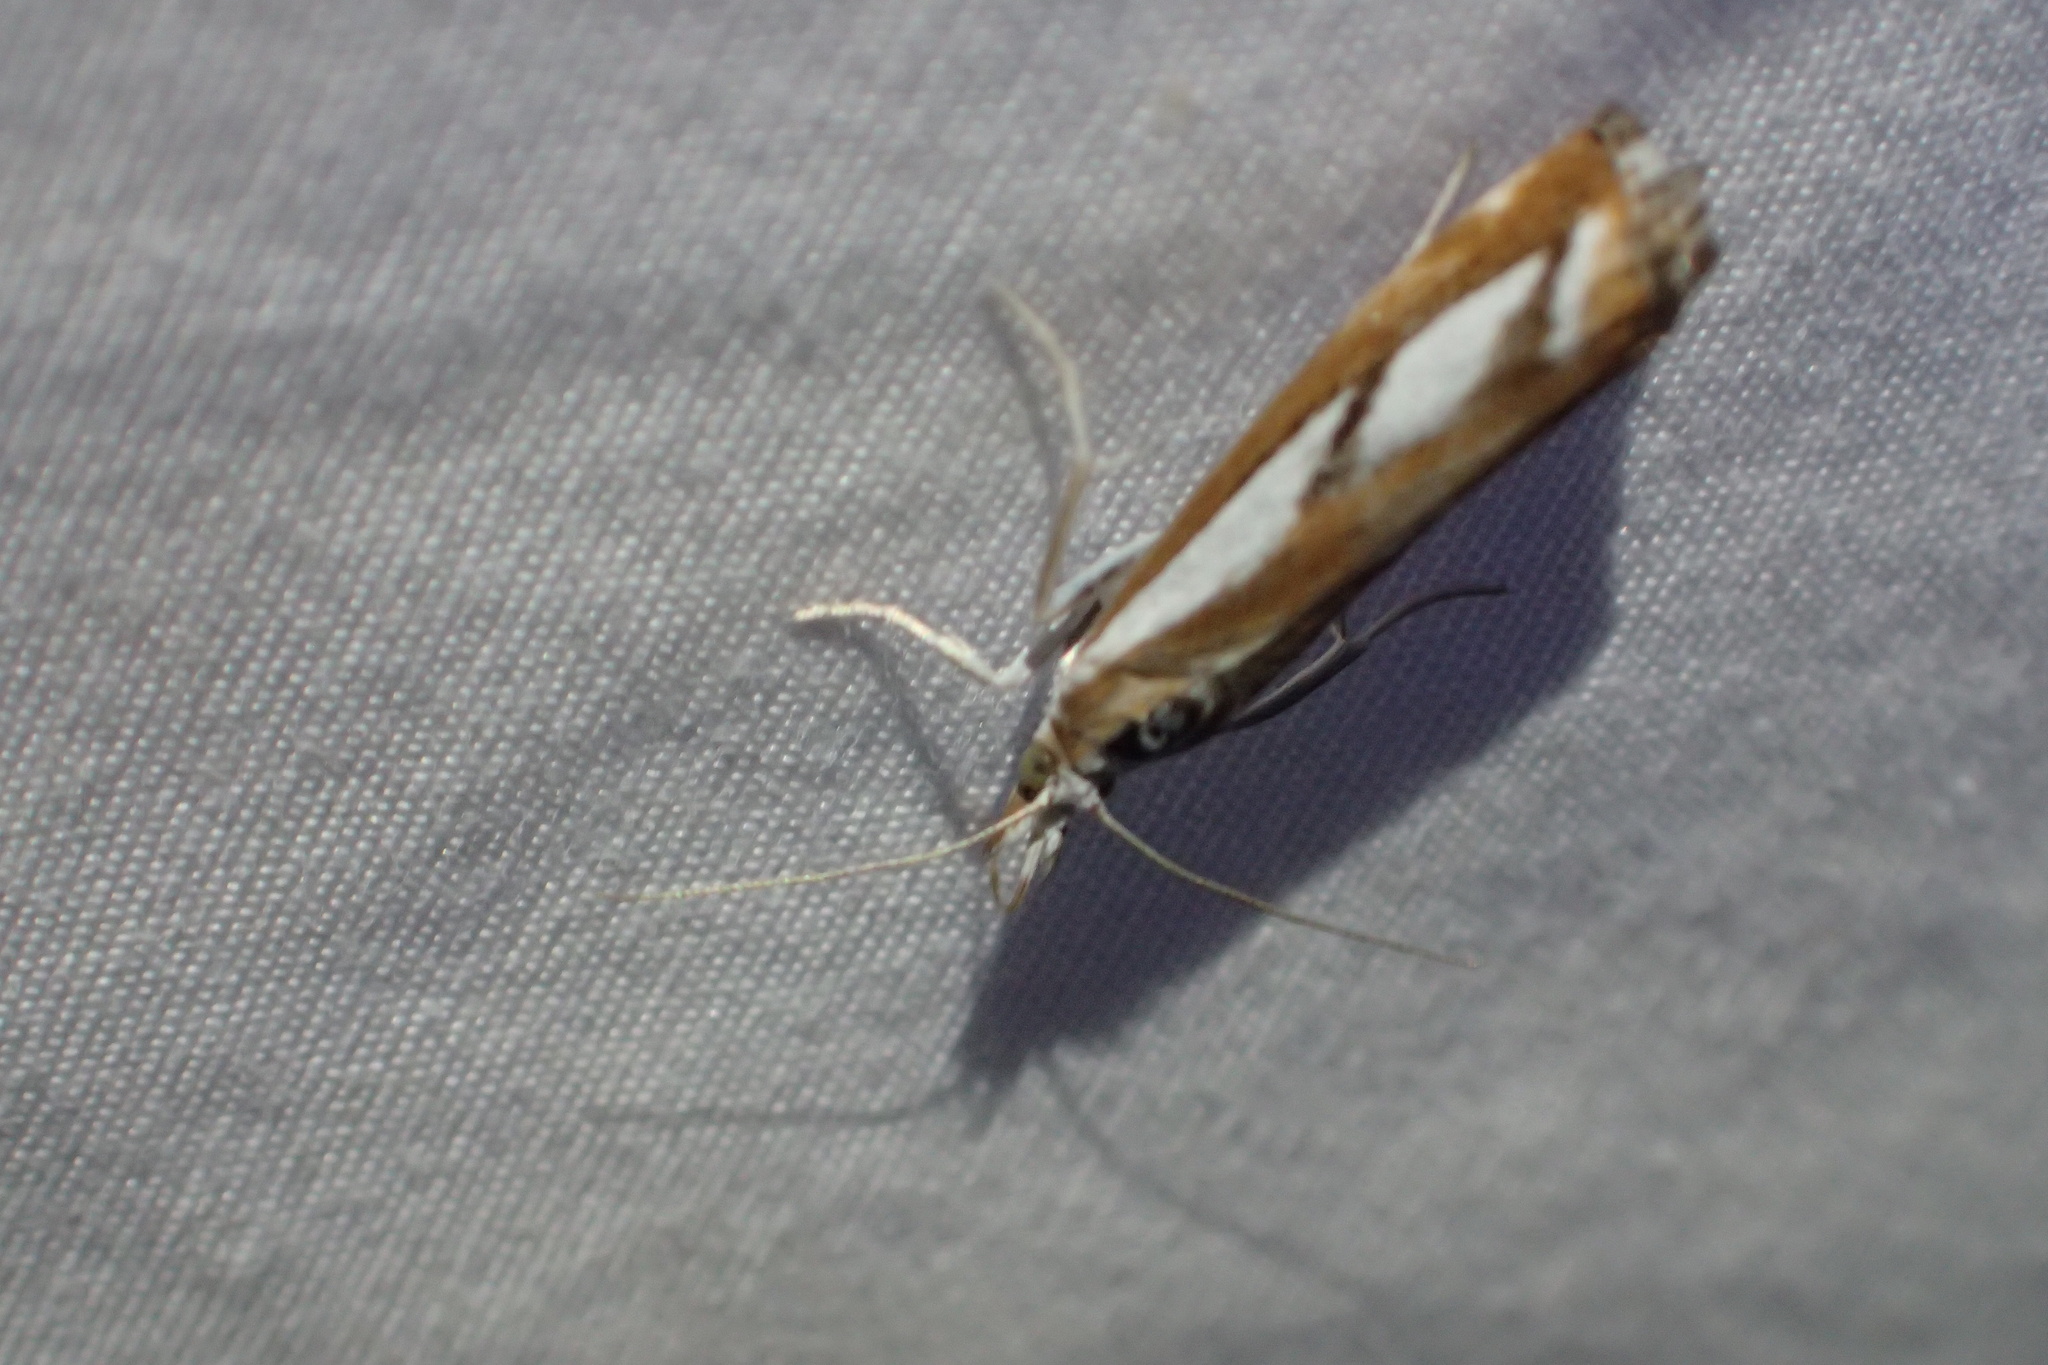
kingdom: Animalia
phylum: Arthropoda
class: Insecta
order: Lepidoptera
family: Crambidae
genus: Catoptria
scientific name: Catoptria latiradiellus
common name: Two-banded catoptria moth
